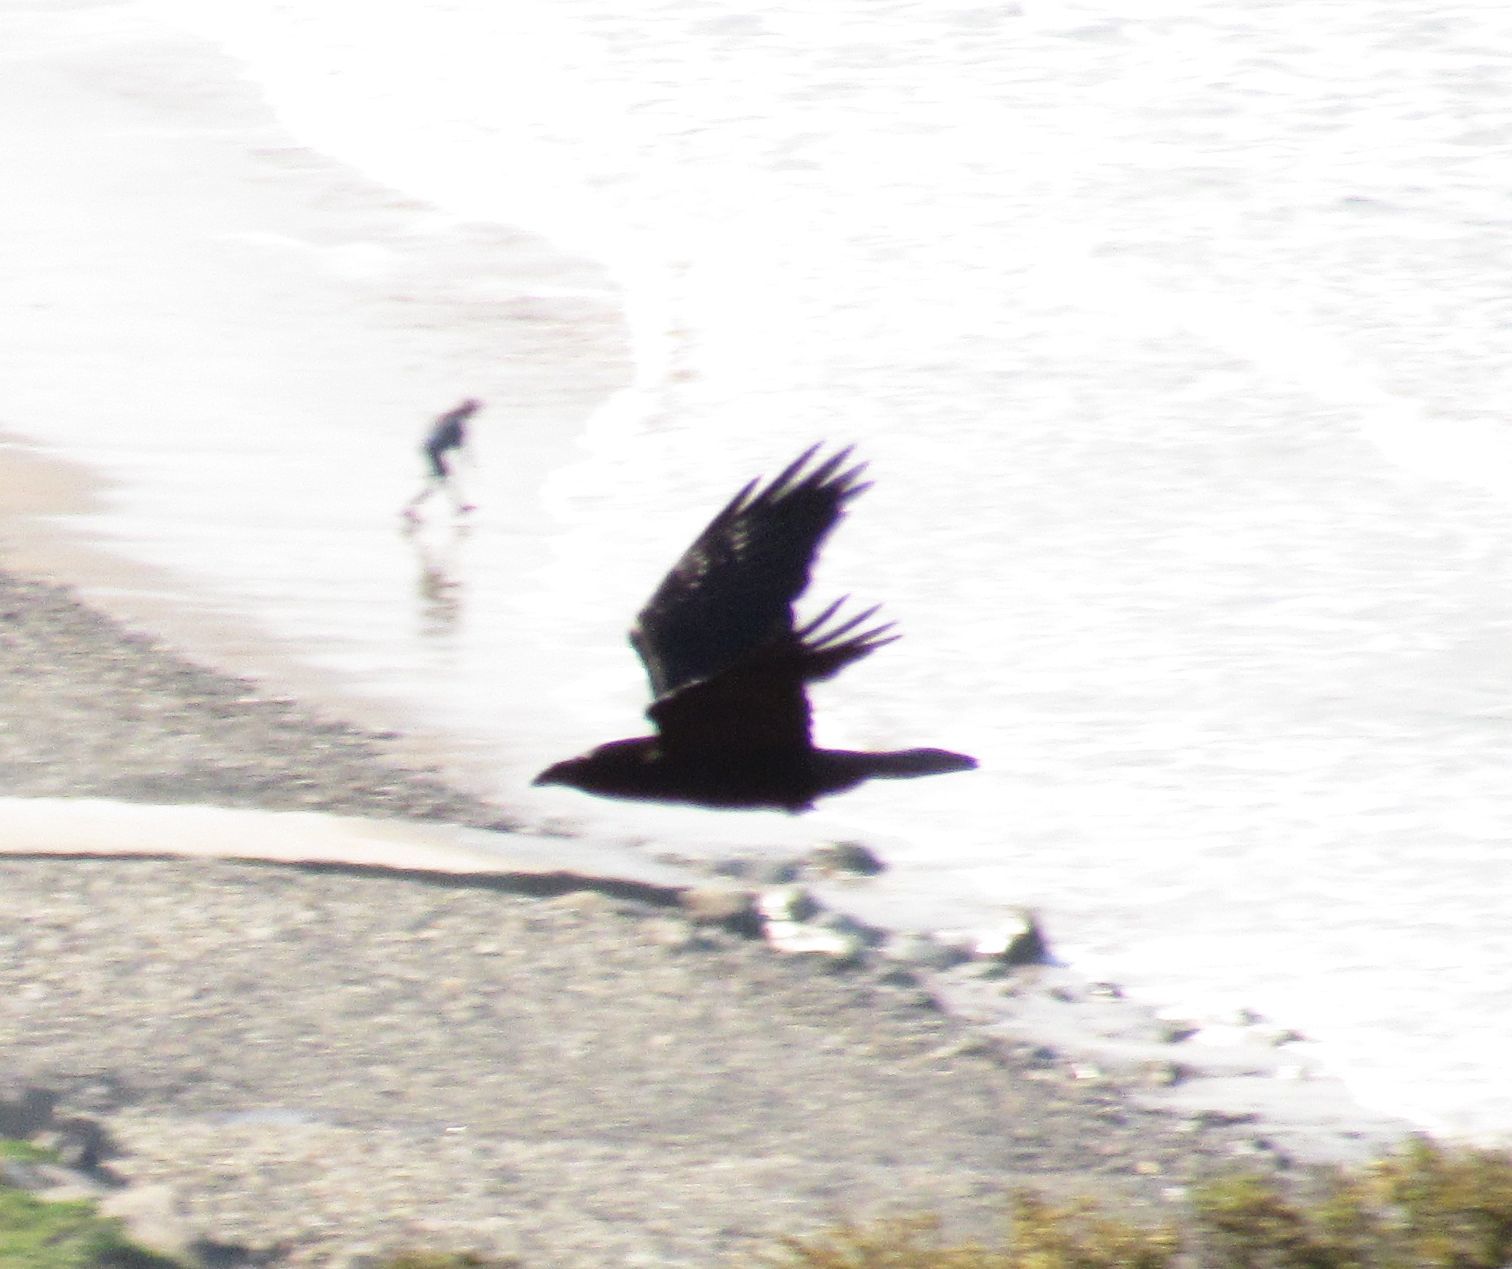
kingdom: Animalia
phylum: Chordata
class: Aves
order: Passeriformes
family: Corvidae
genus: Corvus
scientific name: Corvus corax
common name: Common raven
